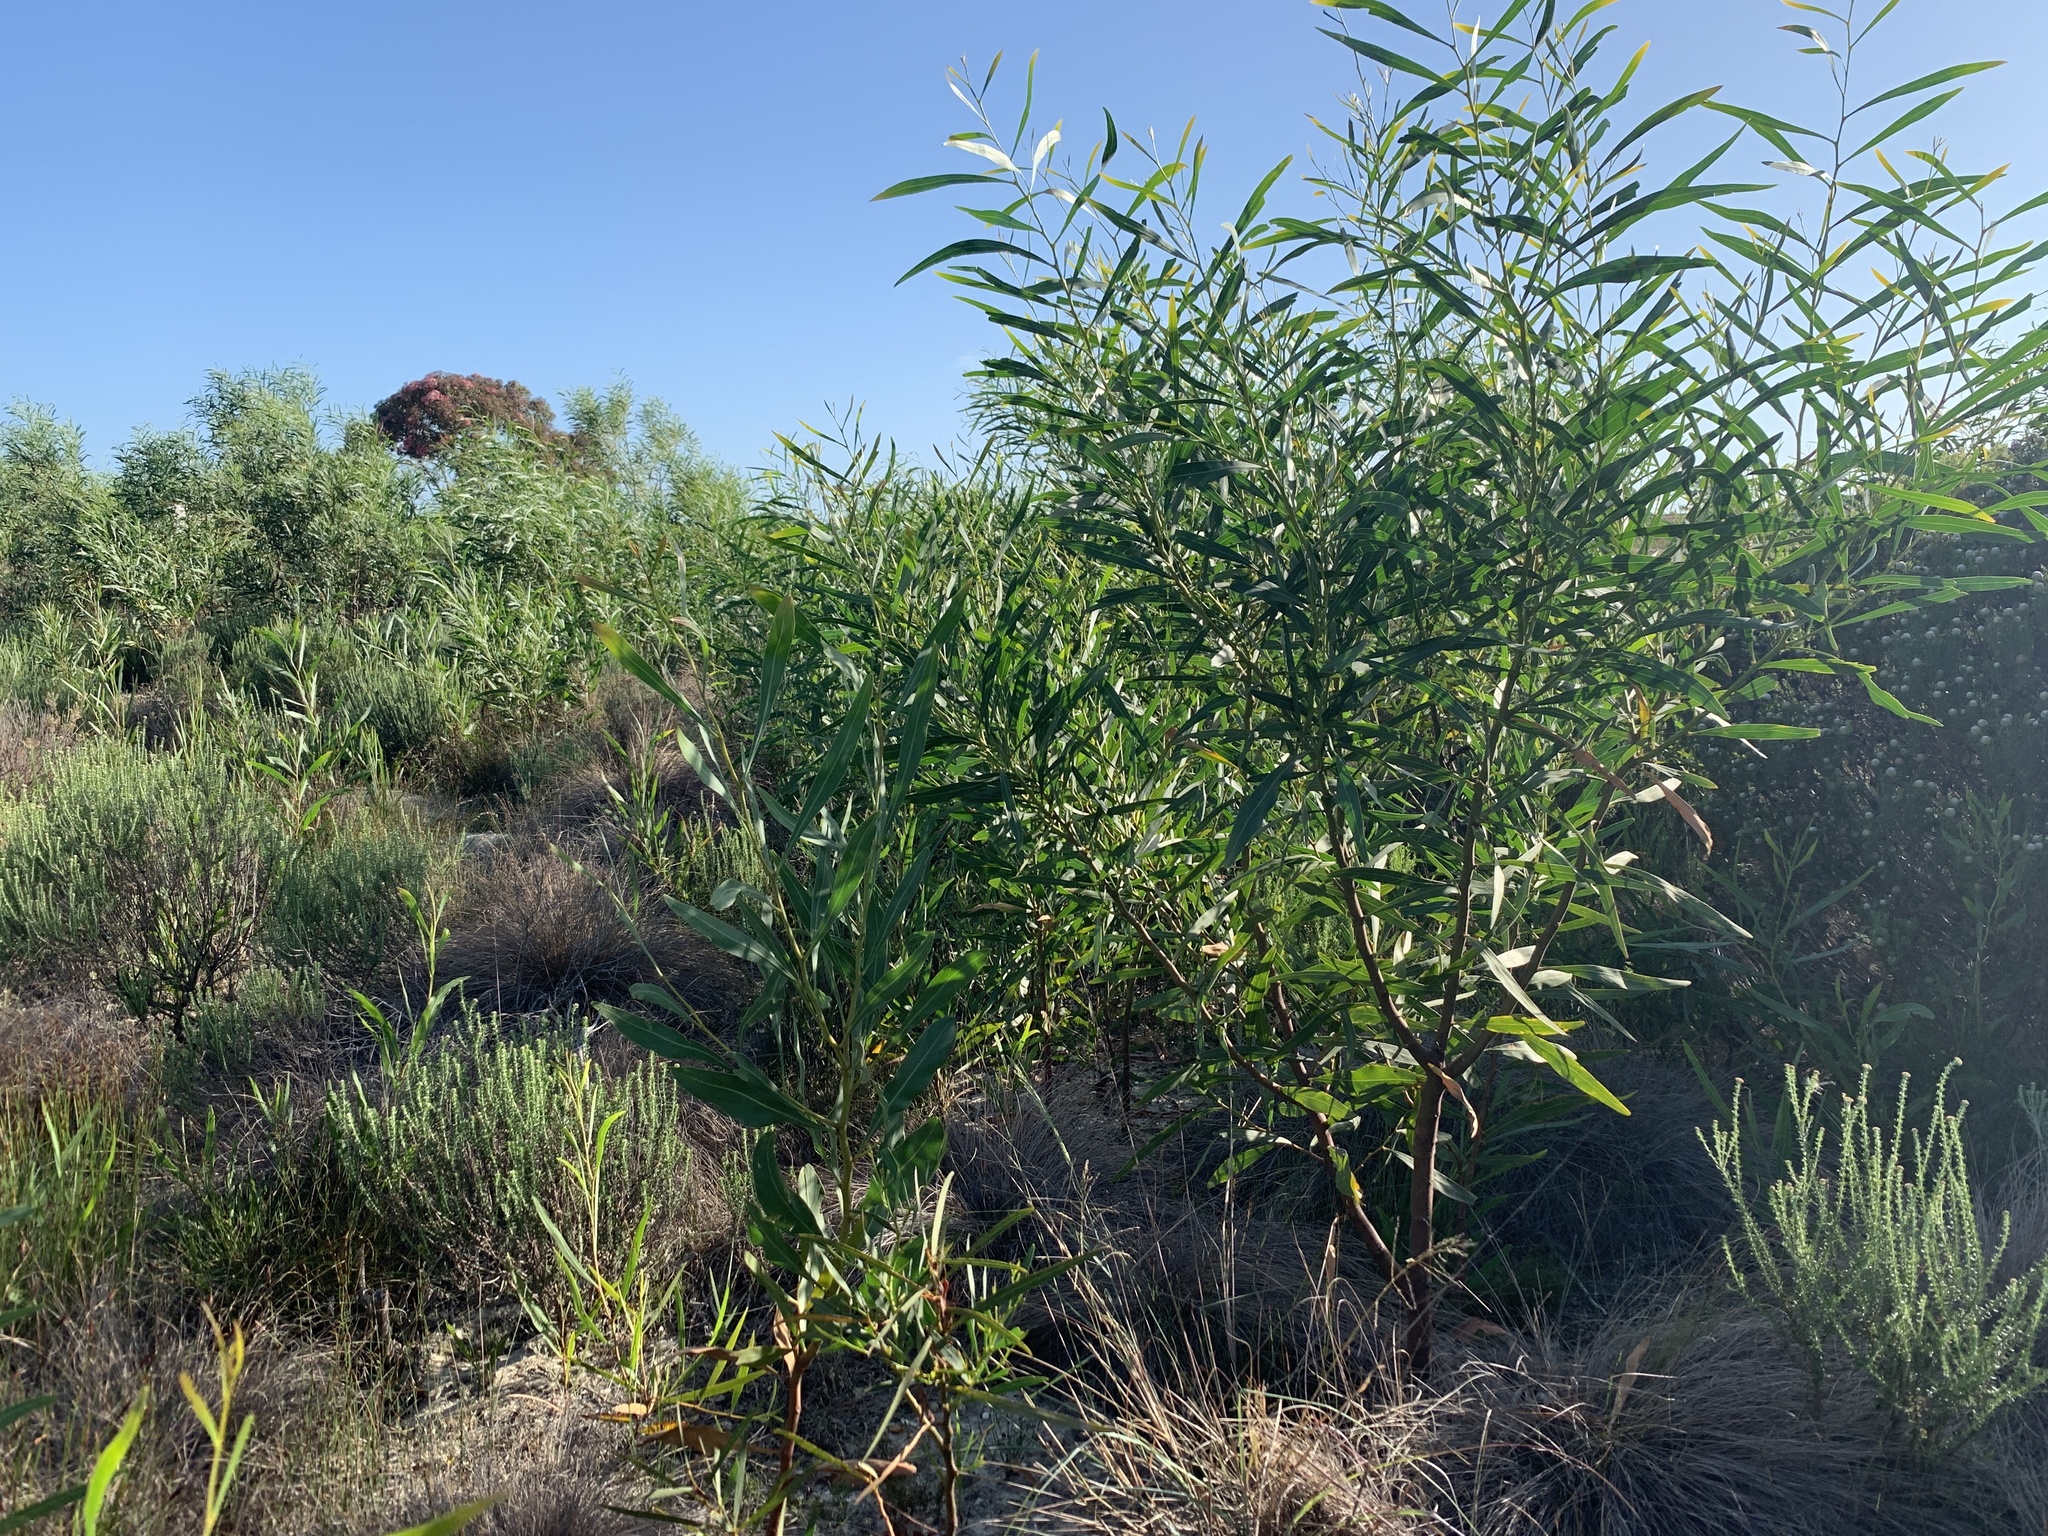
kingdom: Plantae
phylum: Tracheophyta
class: Magnoliopsida
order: Fabales
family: Fabaceae
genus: Acacia
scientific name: Acacia saligna
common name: Orange wattle
